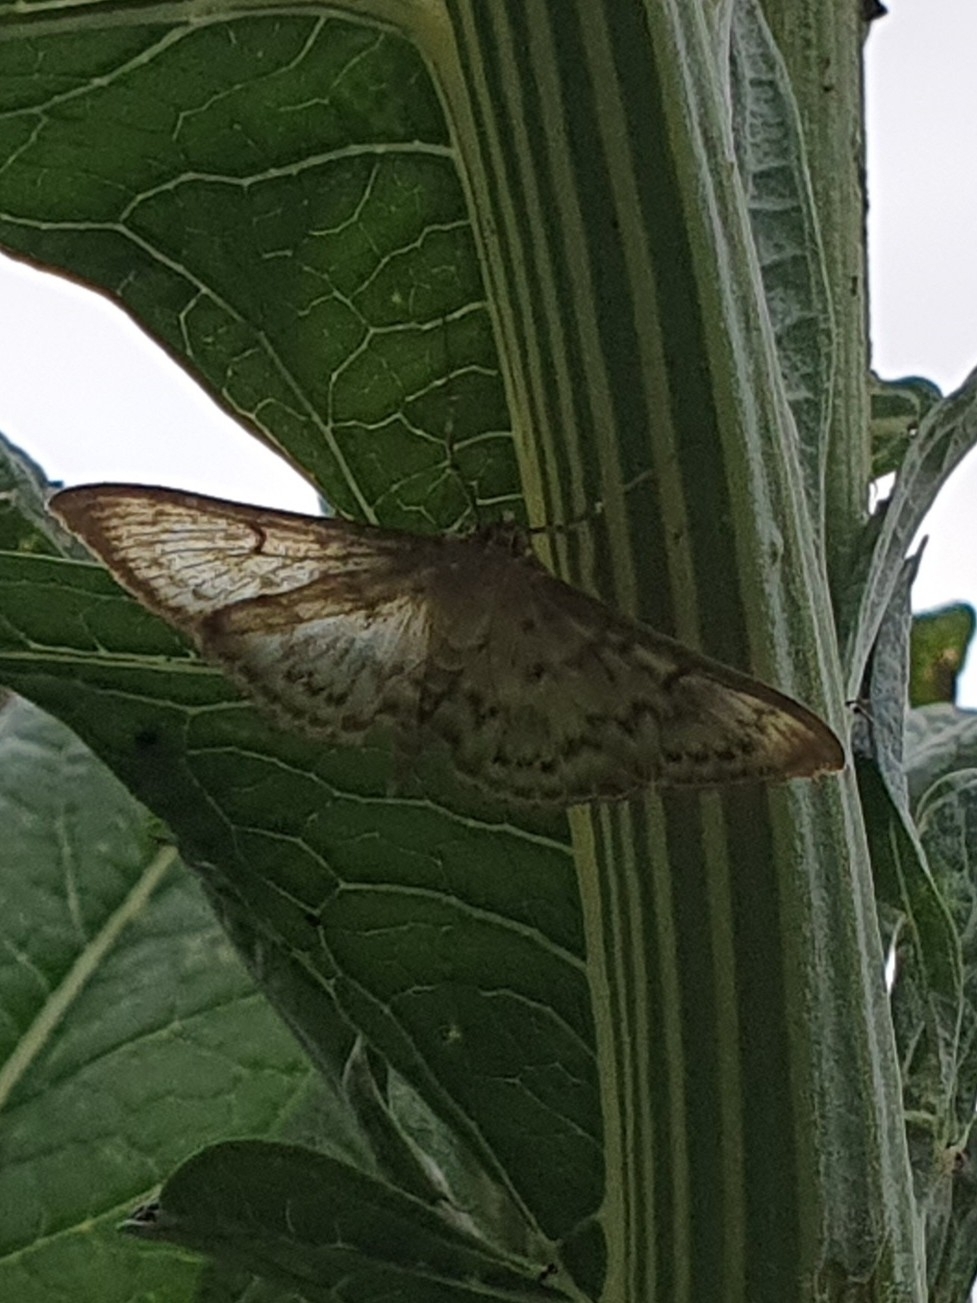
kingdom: Animalia
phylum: Arthropoda
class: Insecta
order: Lepidoptera
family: Crambidae
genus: Patania
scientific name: Patania ruralis
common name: Mother of pearl
